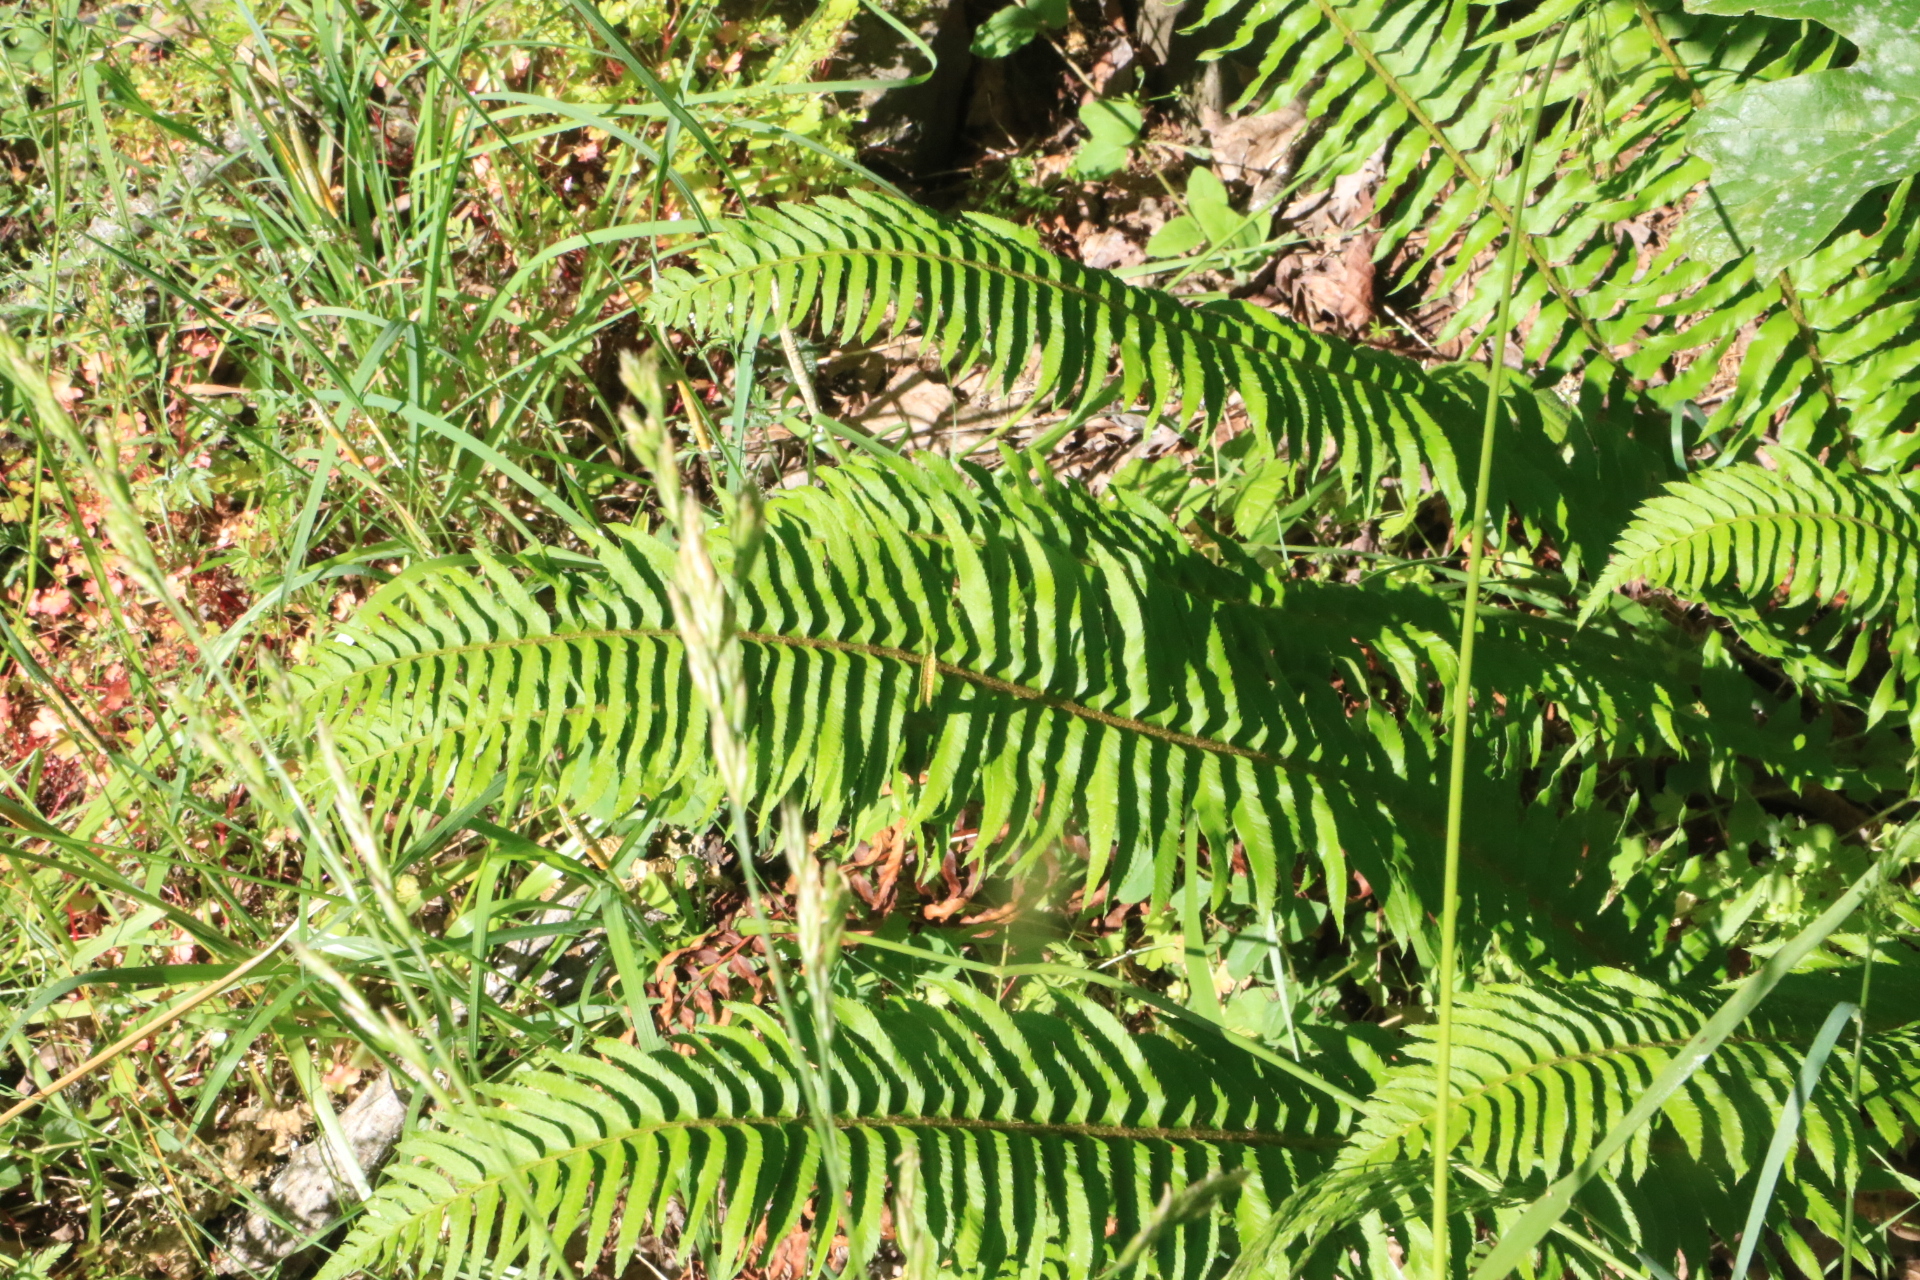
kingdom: Plantae
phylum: Tracheophyta
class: Polypodiopsida
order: Polypodiales
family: Dryopteridaceae
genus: Polystichum
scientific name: Polystichum munitum
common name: Western sword-fern
